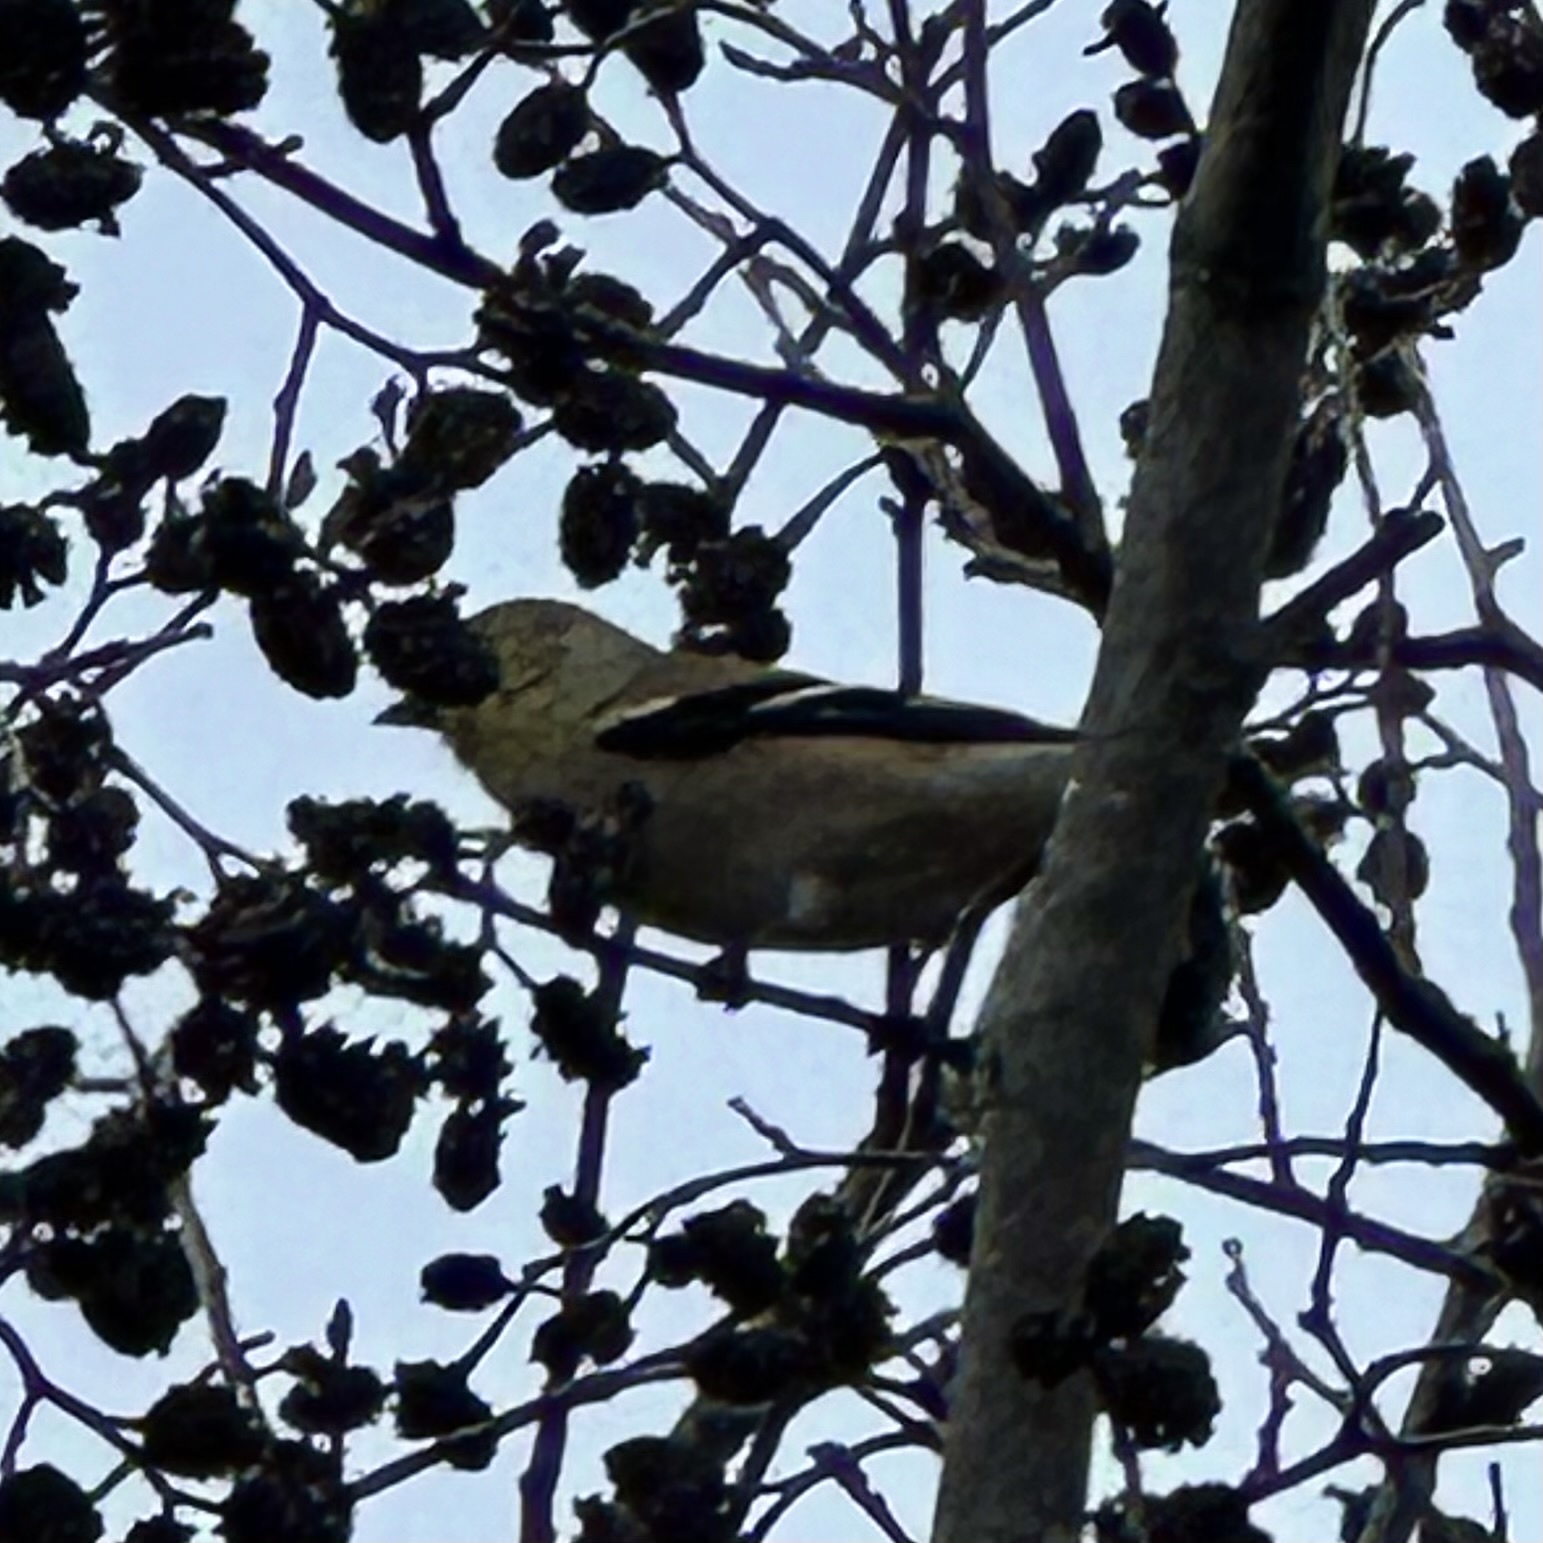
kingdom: Animalia
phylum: Chordata
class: Aves
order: Passeriformes
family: Fringillidae
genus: Spinus
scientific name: Spinus tristis
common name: American goldfinch
